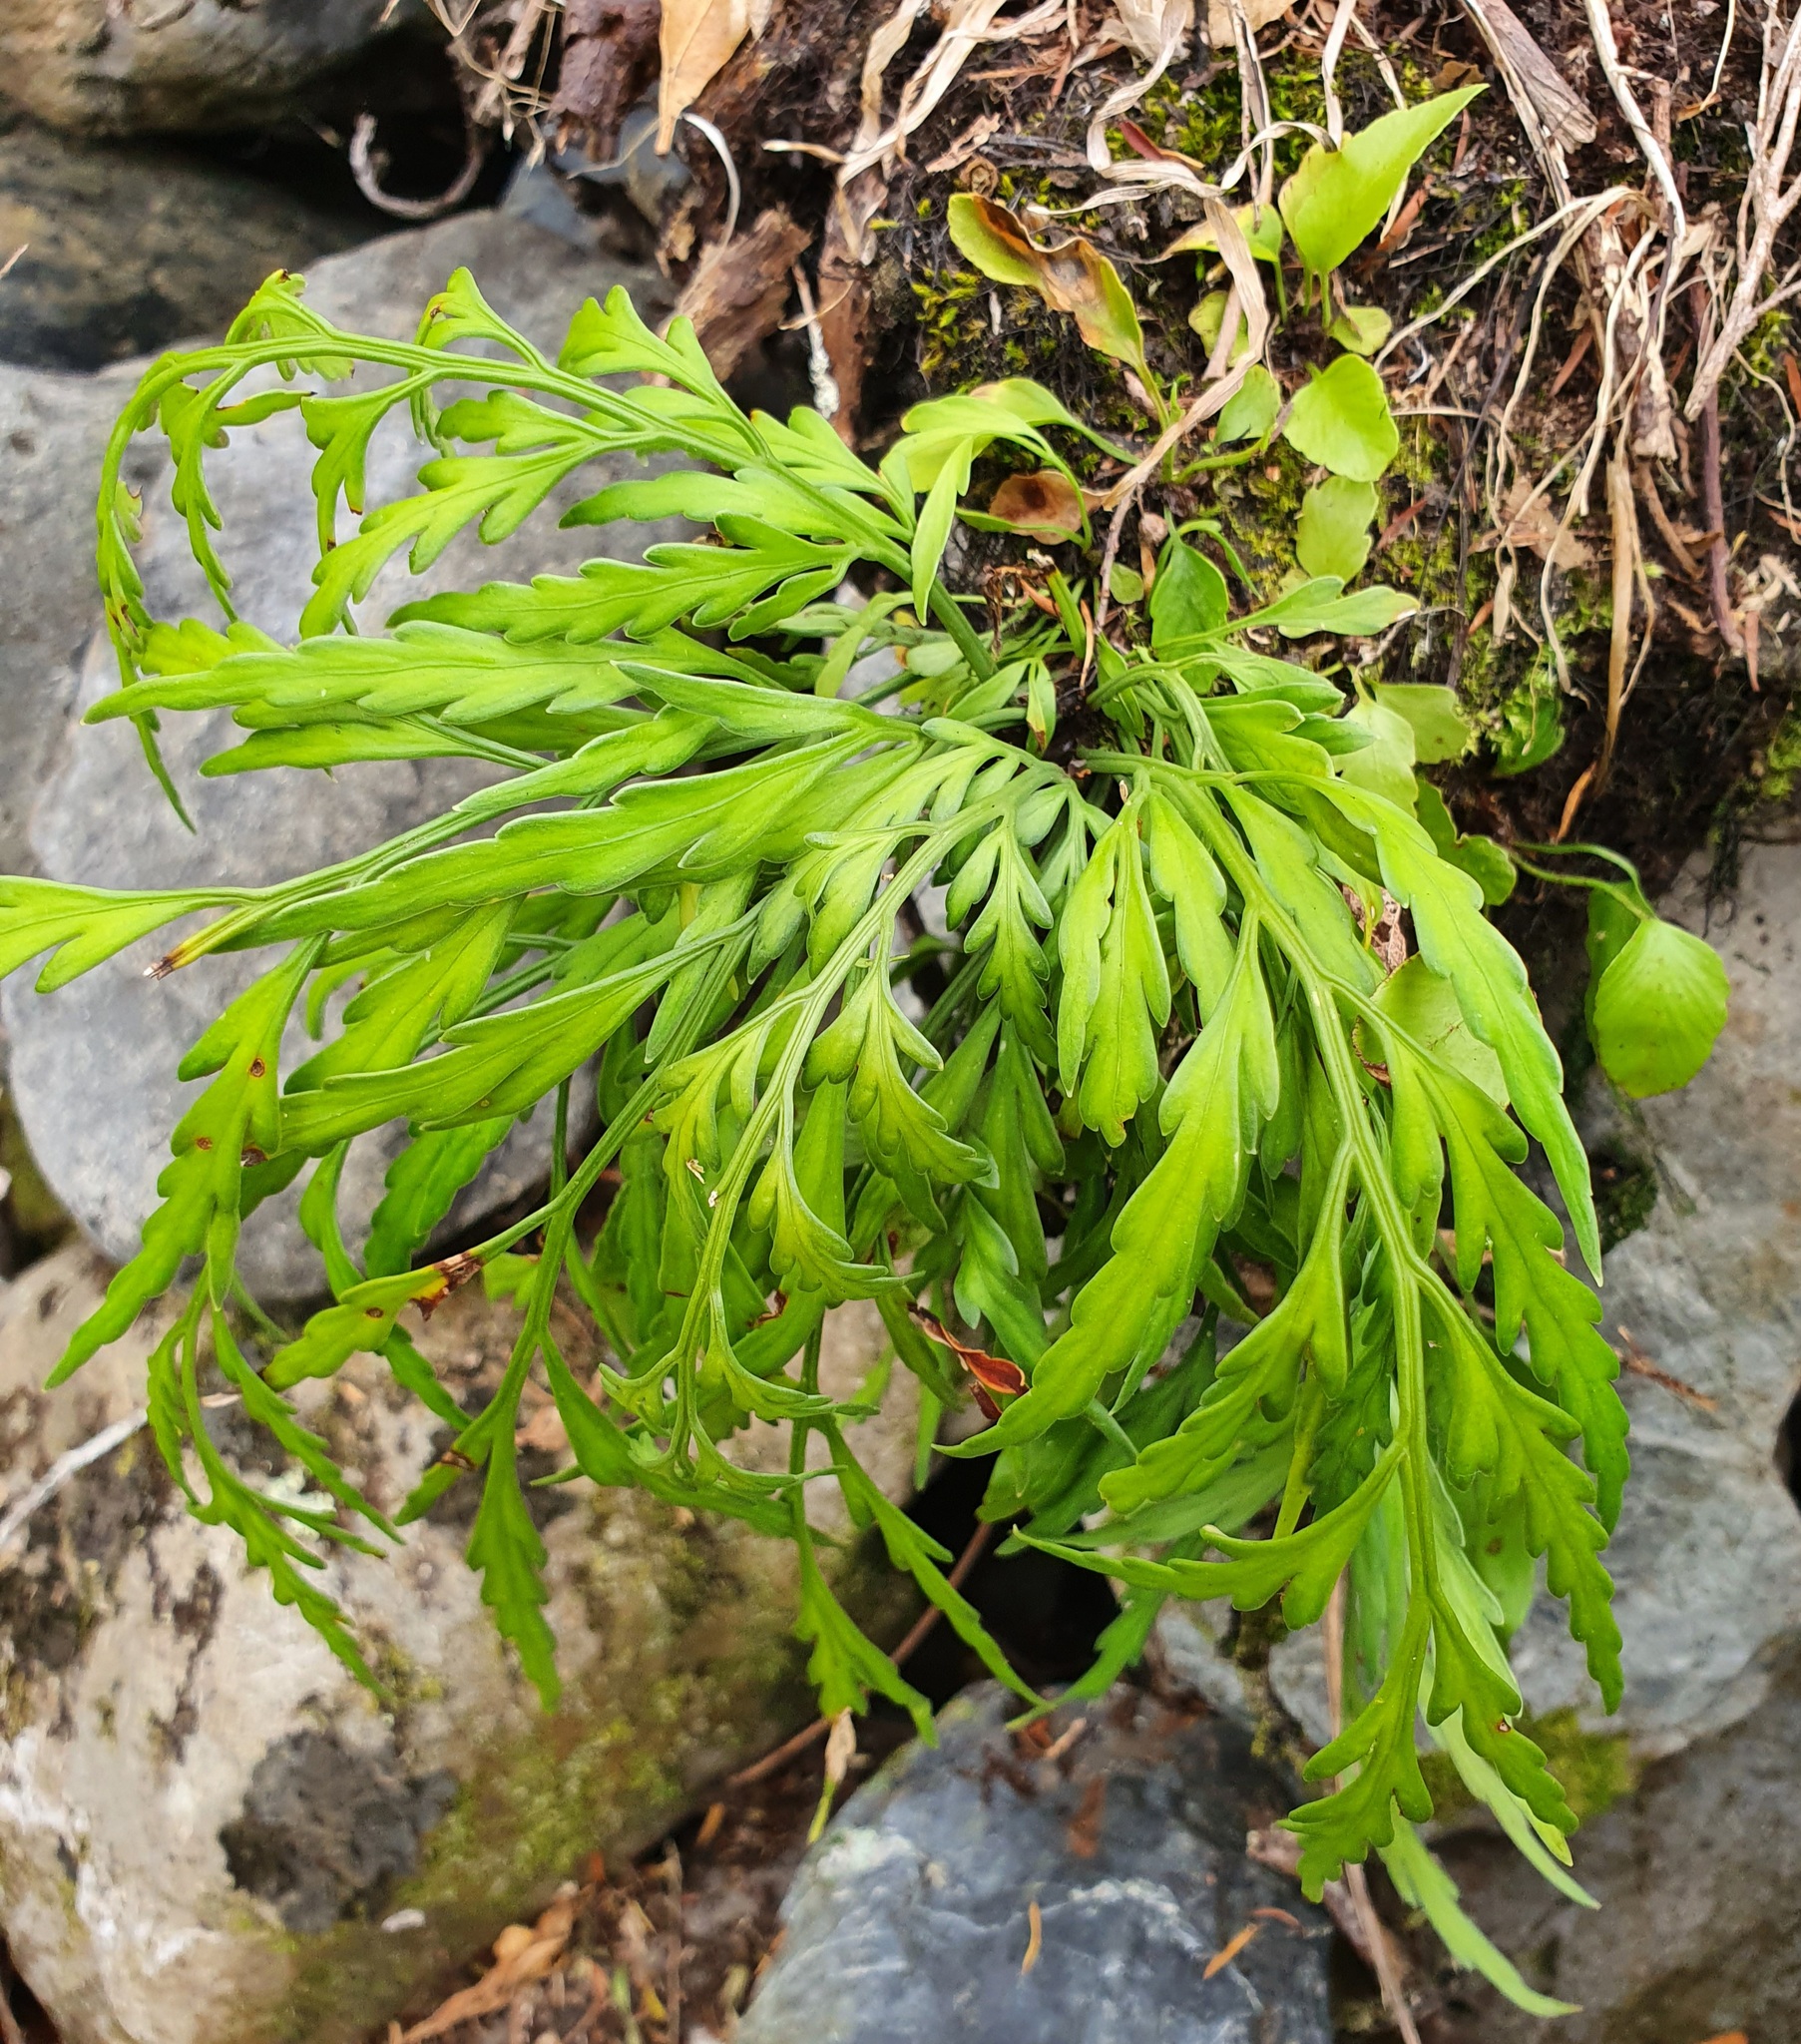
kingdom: Plantae
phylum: Tracheophyta
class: Polypodiopsida
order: Polypodiales
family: Aspleniaceae
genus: Asplenium
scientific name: Asplenium flaccidum
